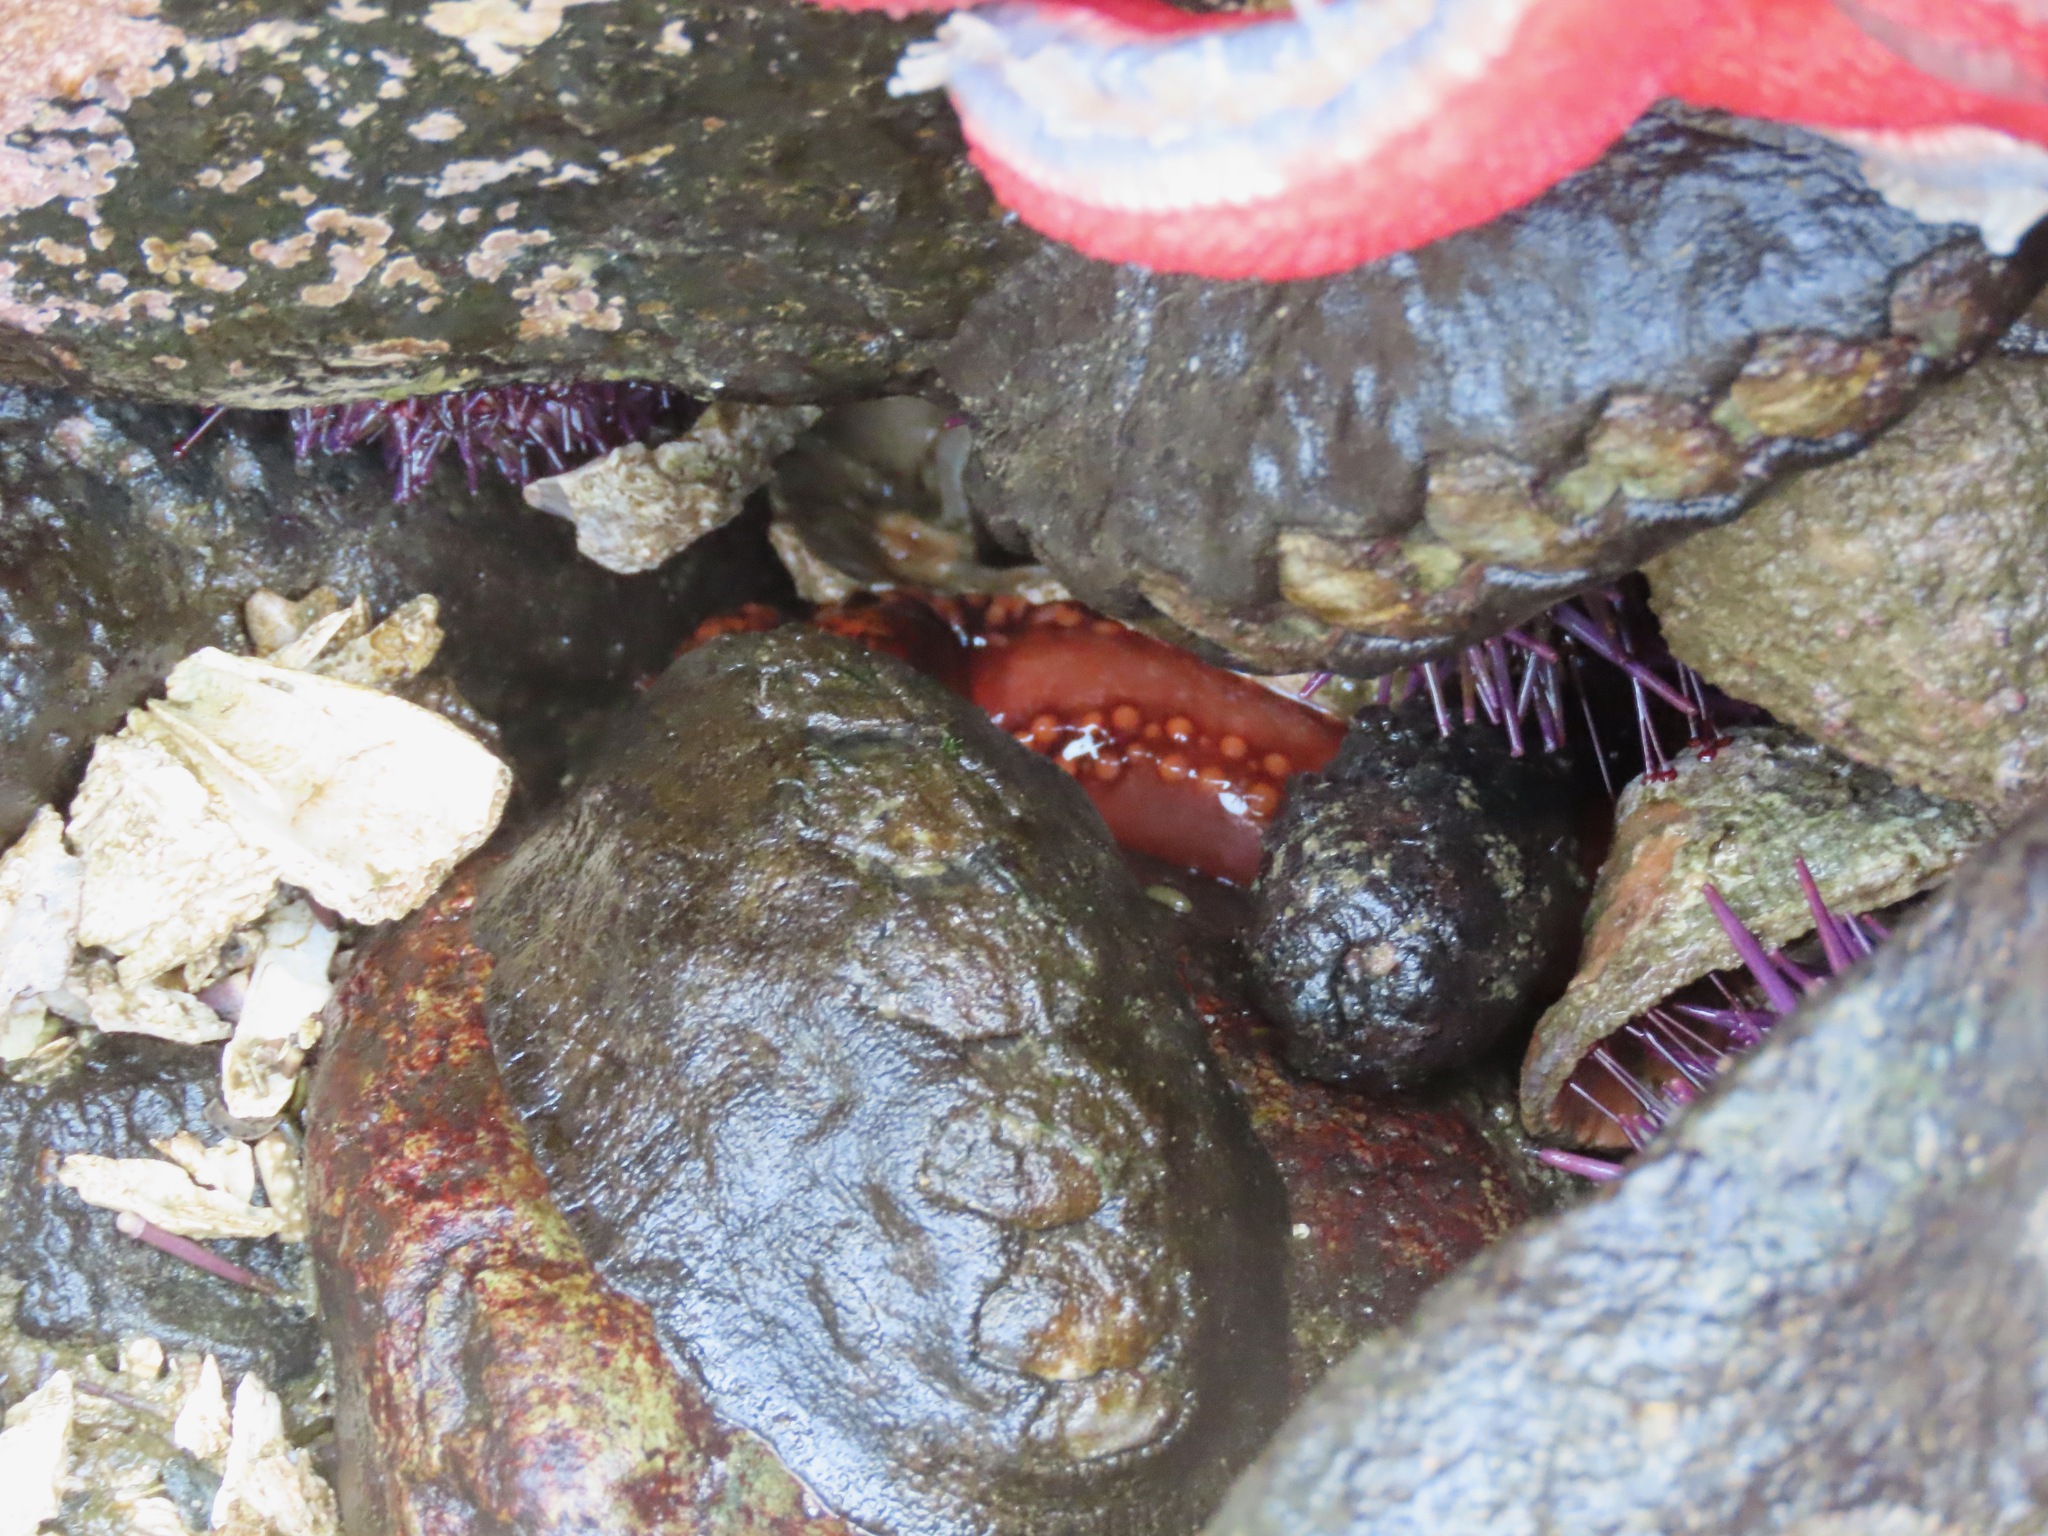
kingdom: Animalia
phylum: Echinodermata
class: Holothuroidea
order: Dendrochirotida
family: Cucumariidae
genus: Cucumaria
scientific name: Cucumaria miniata
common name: Orange sea cucumber
